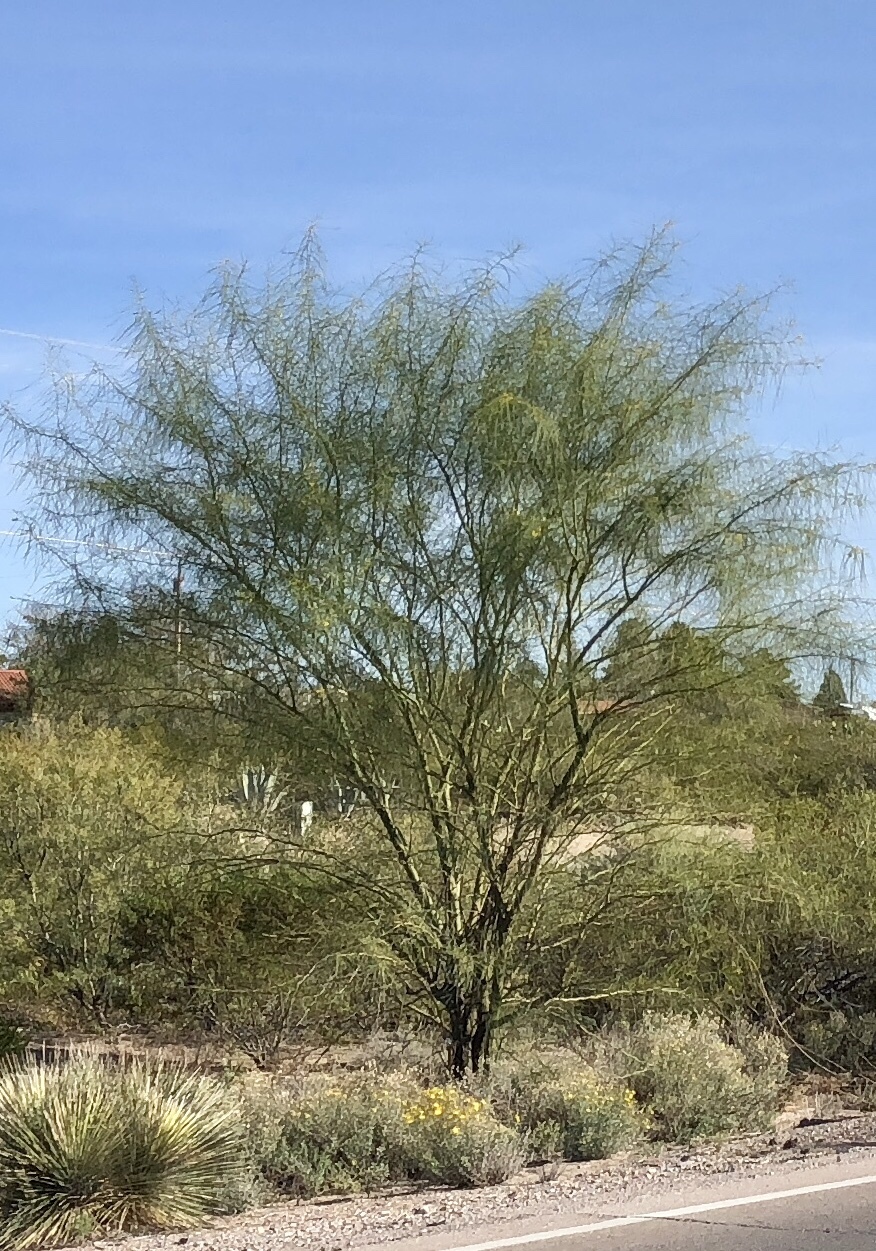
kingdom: Plantae
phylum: Tracheophyta
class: Magnoliopsida
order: Fabales
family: Fabaceae
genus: Parkinsonia
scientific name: Parkinsonia aculeata
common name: Jerusalem thorn
